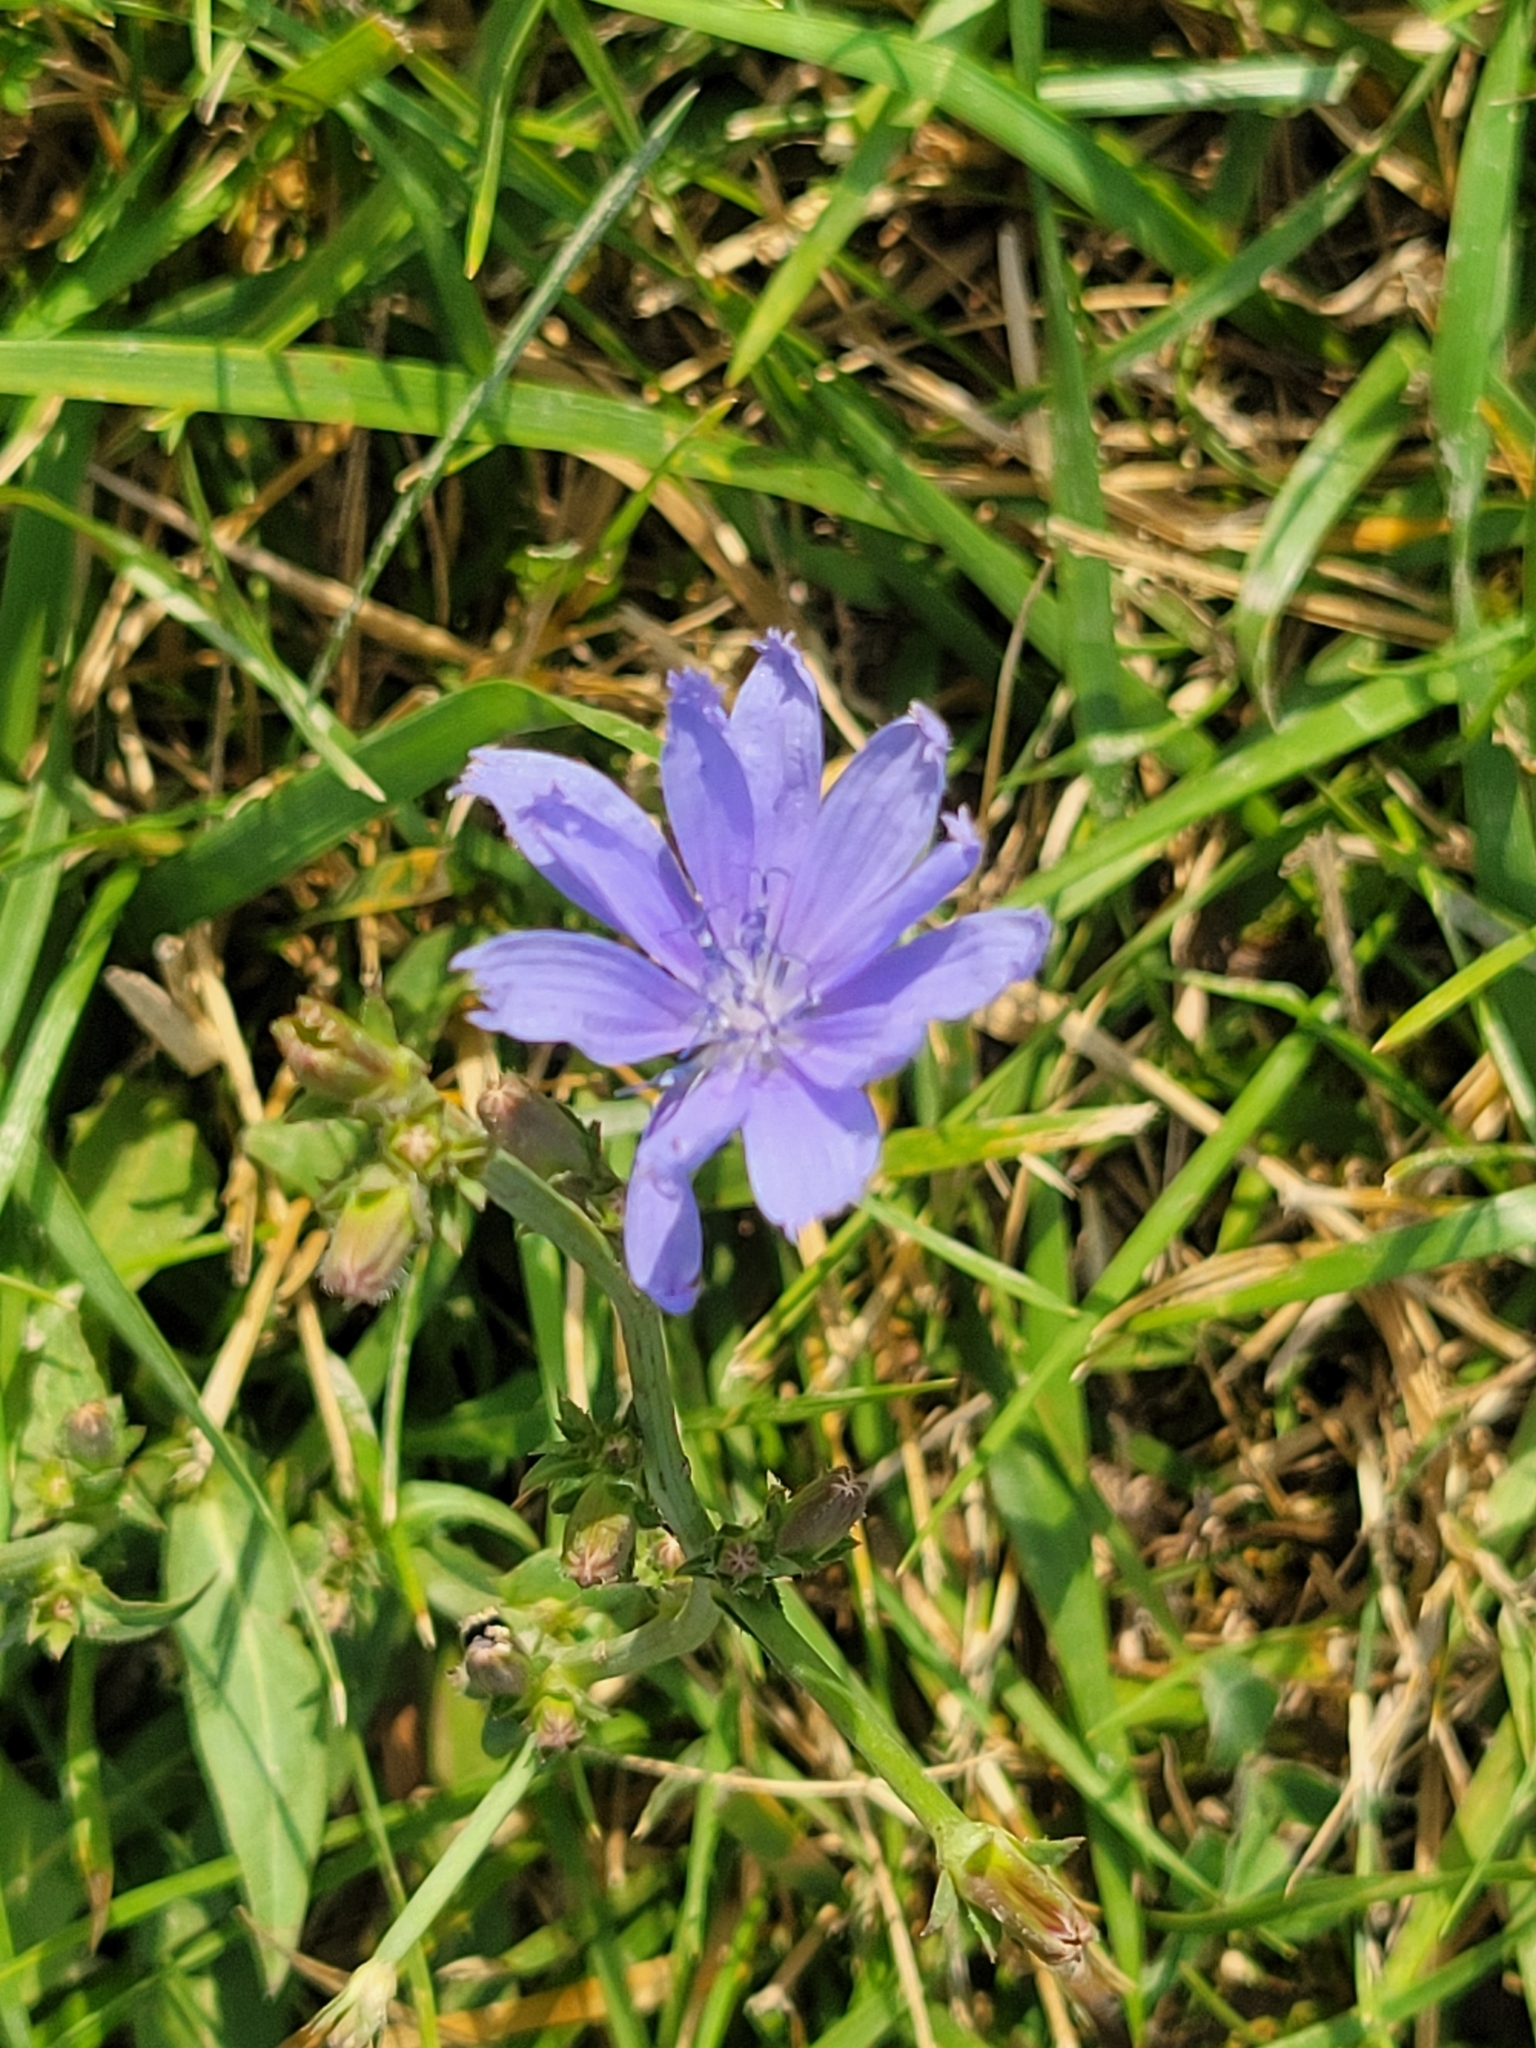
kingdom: Plantae
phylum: Tracheophyta
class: Magnoliopsida
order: Asterales
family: Asteraceae
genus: Cichorium
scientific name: Cichorium intybus
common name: Chicory
